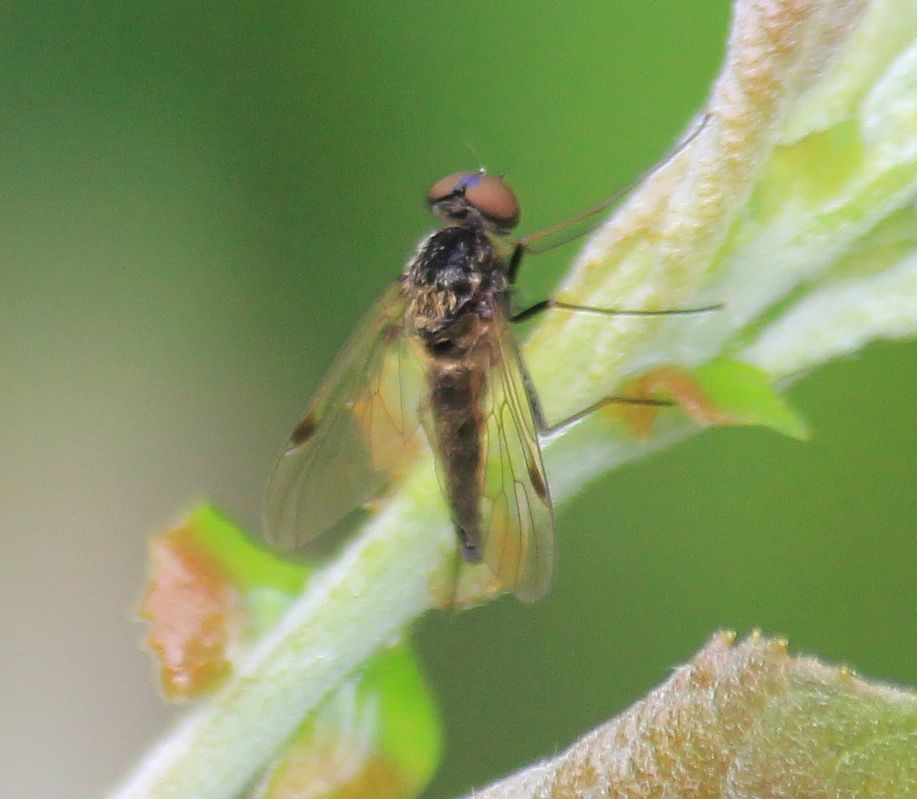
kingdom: Animalia
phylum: Arthropoda
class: Insecta
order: Diptera
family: Rhagionidae
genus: Chrysopilus
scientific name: Chrysopilus cristatus
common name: Black snipefly
